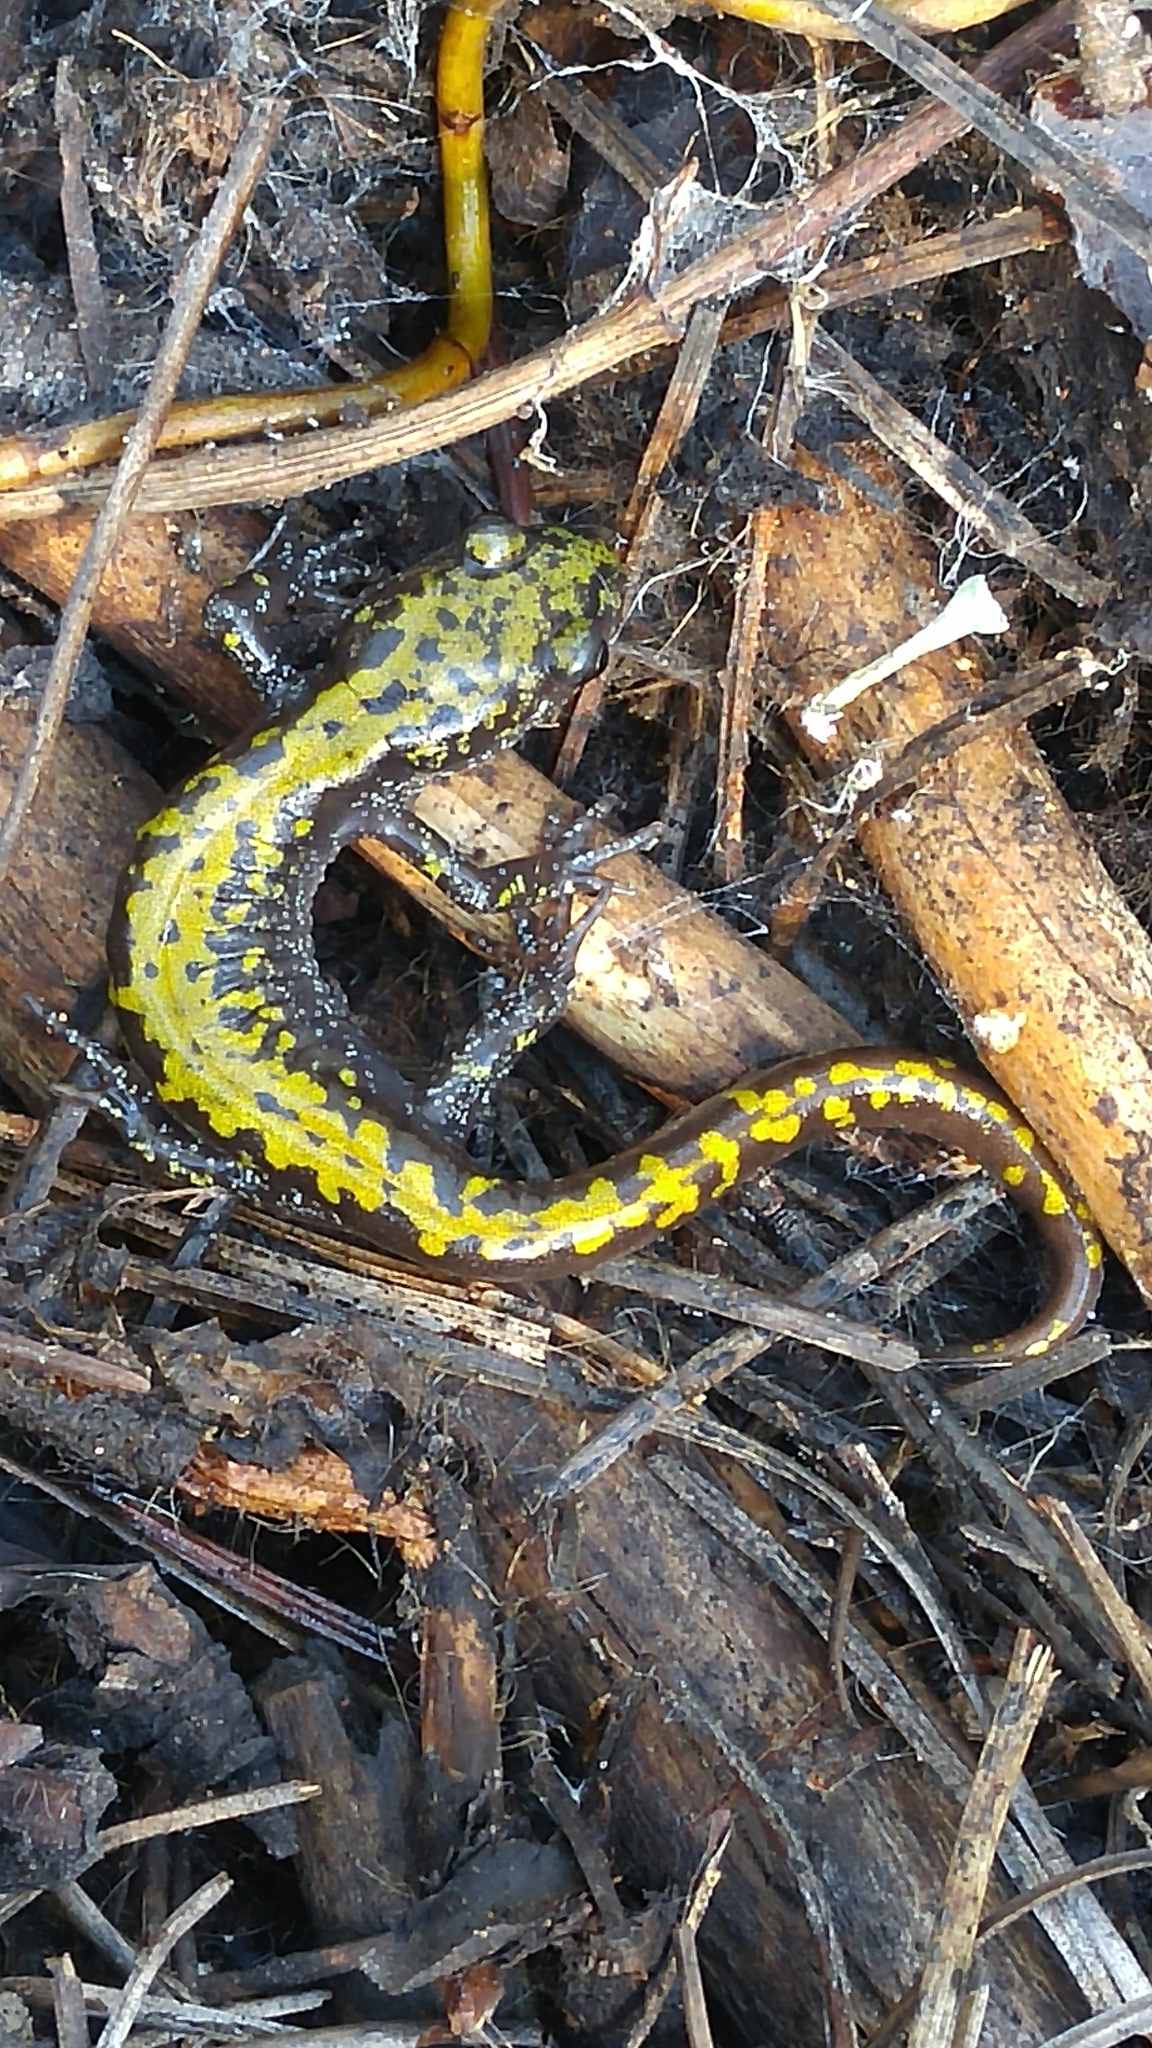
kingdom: Animalia
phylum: Chordata
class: Amphibia
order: Caudata
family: Ambystomatidae
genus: Ambystoma
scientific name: Ambystoma macrodactylum
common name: Long-toed salamander
